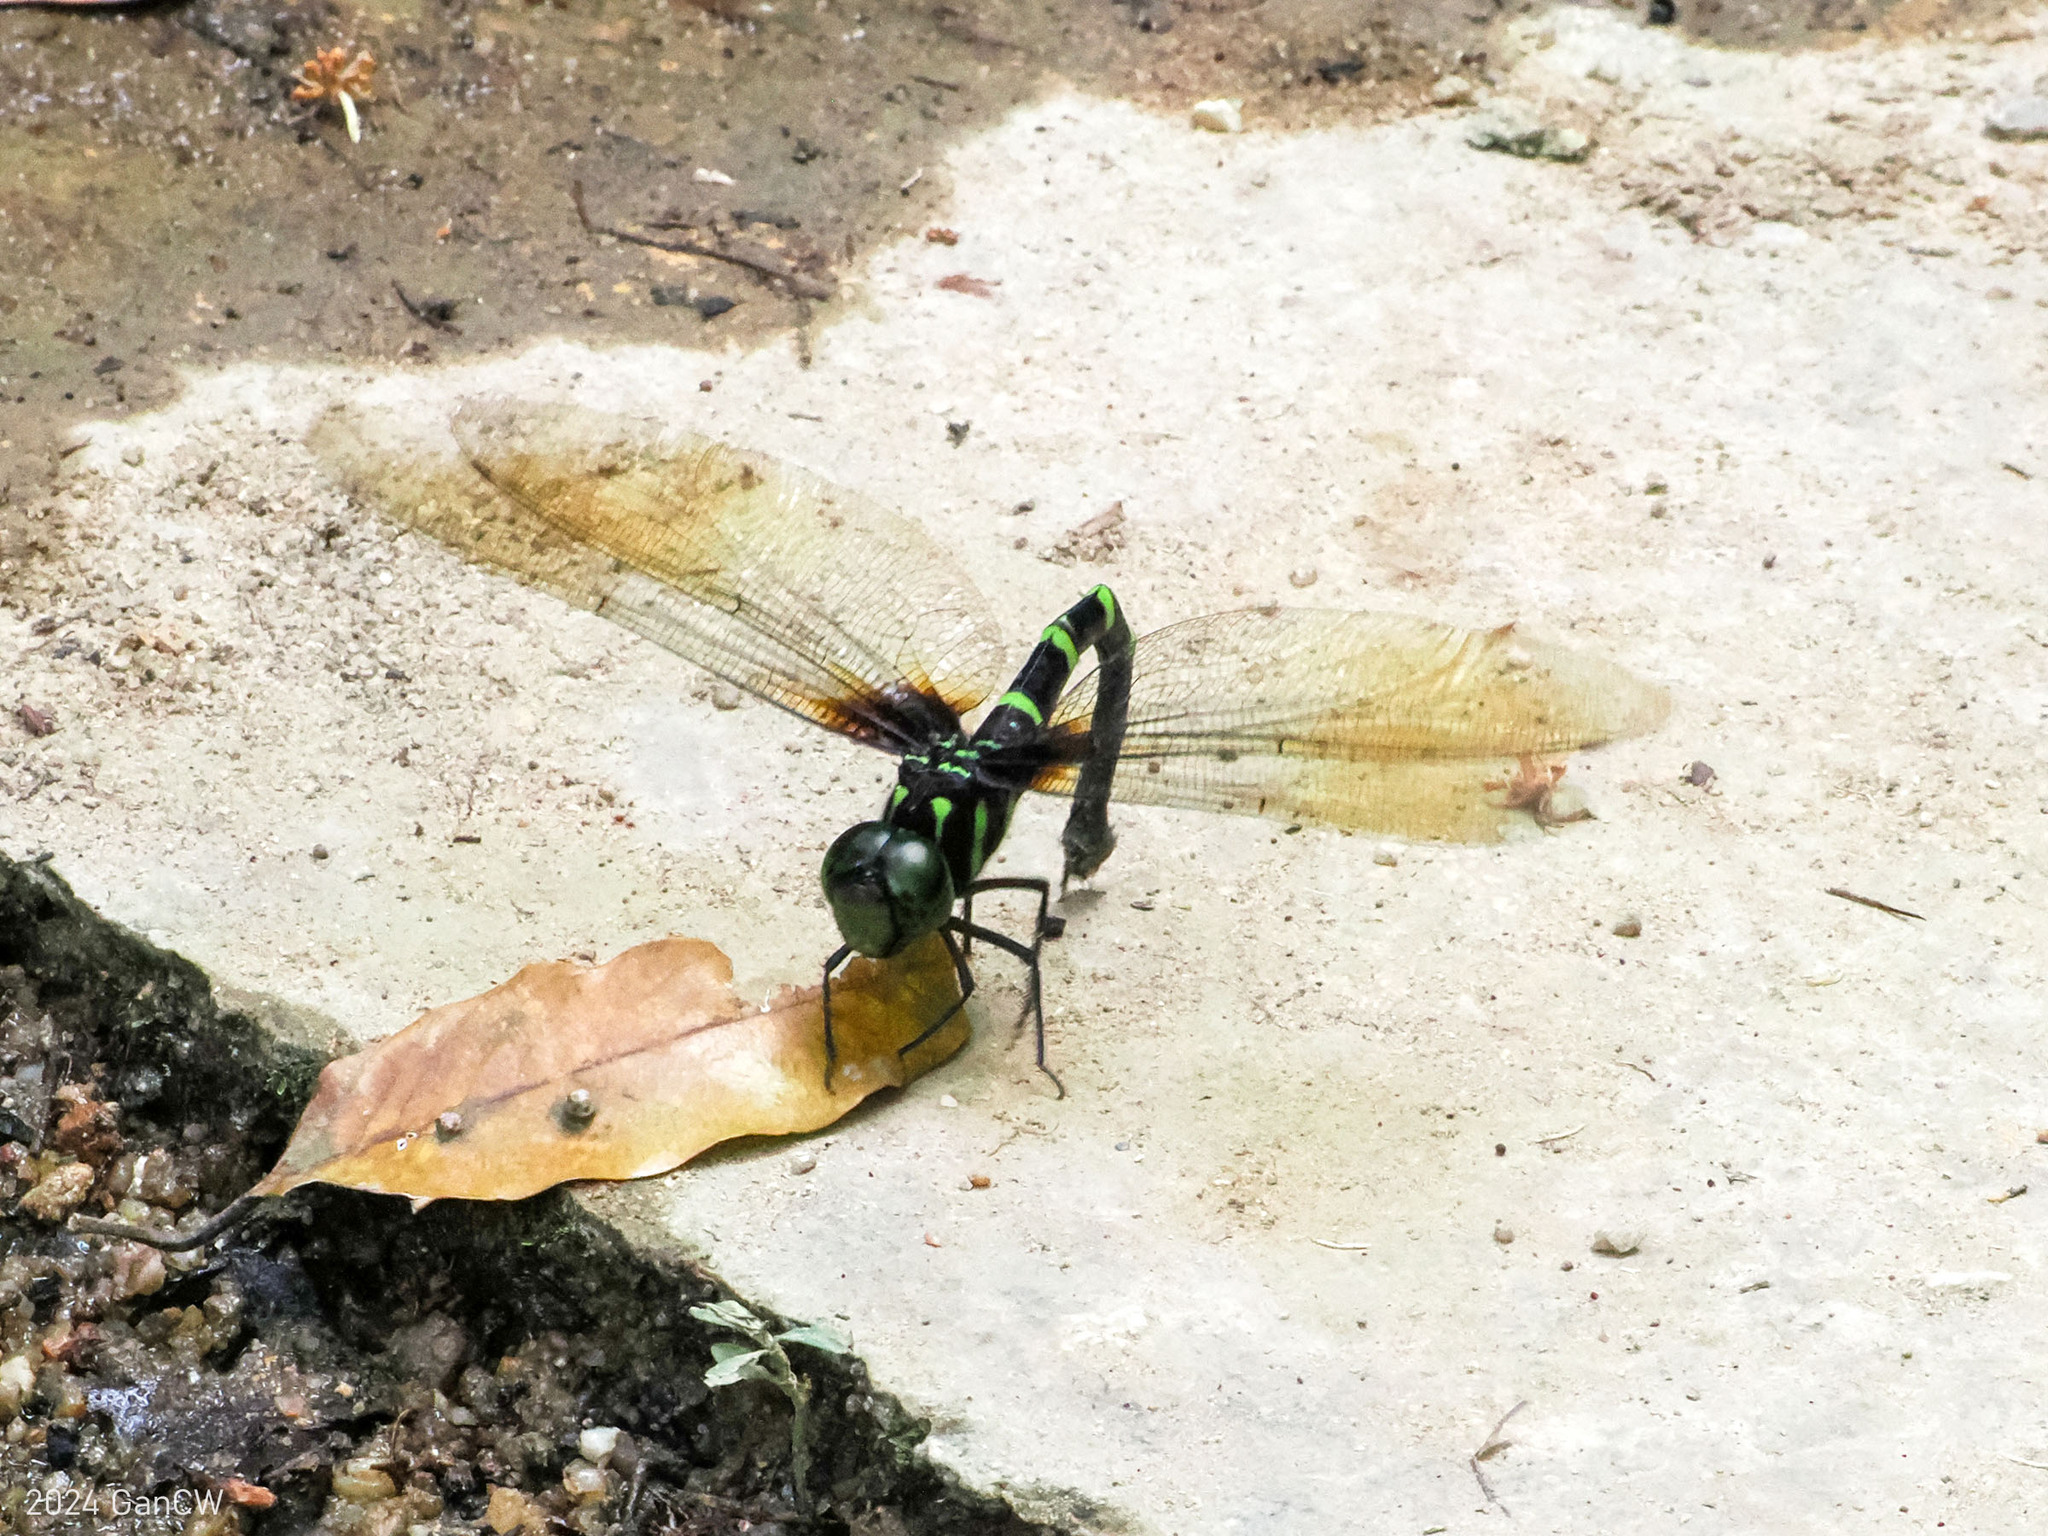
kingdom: Animalia
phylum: Arthropoda
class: Insecta
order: Odonata
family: Aeshnidae
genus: Indaeschna
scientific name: Indaeschna grubaueri
